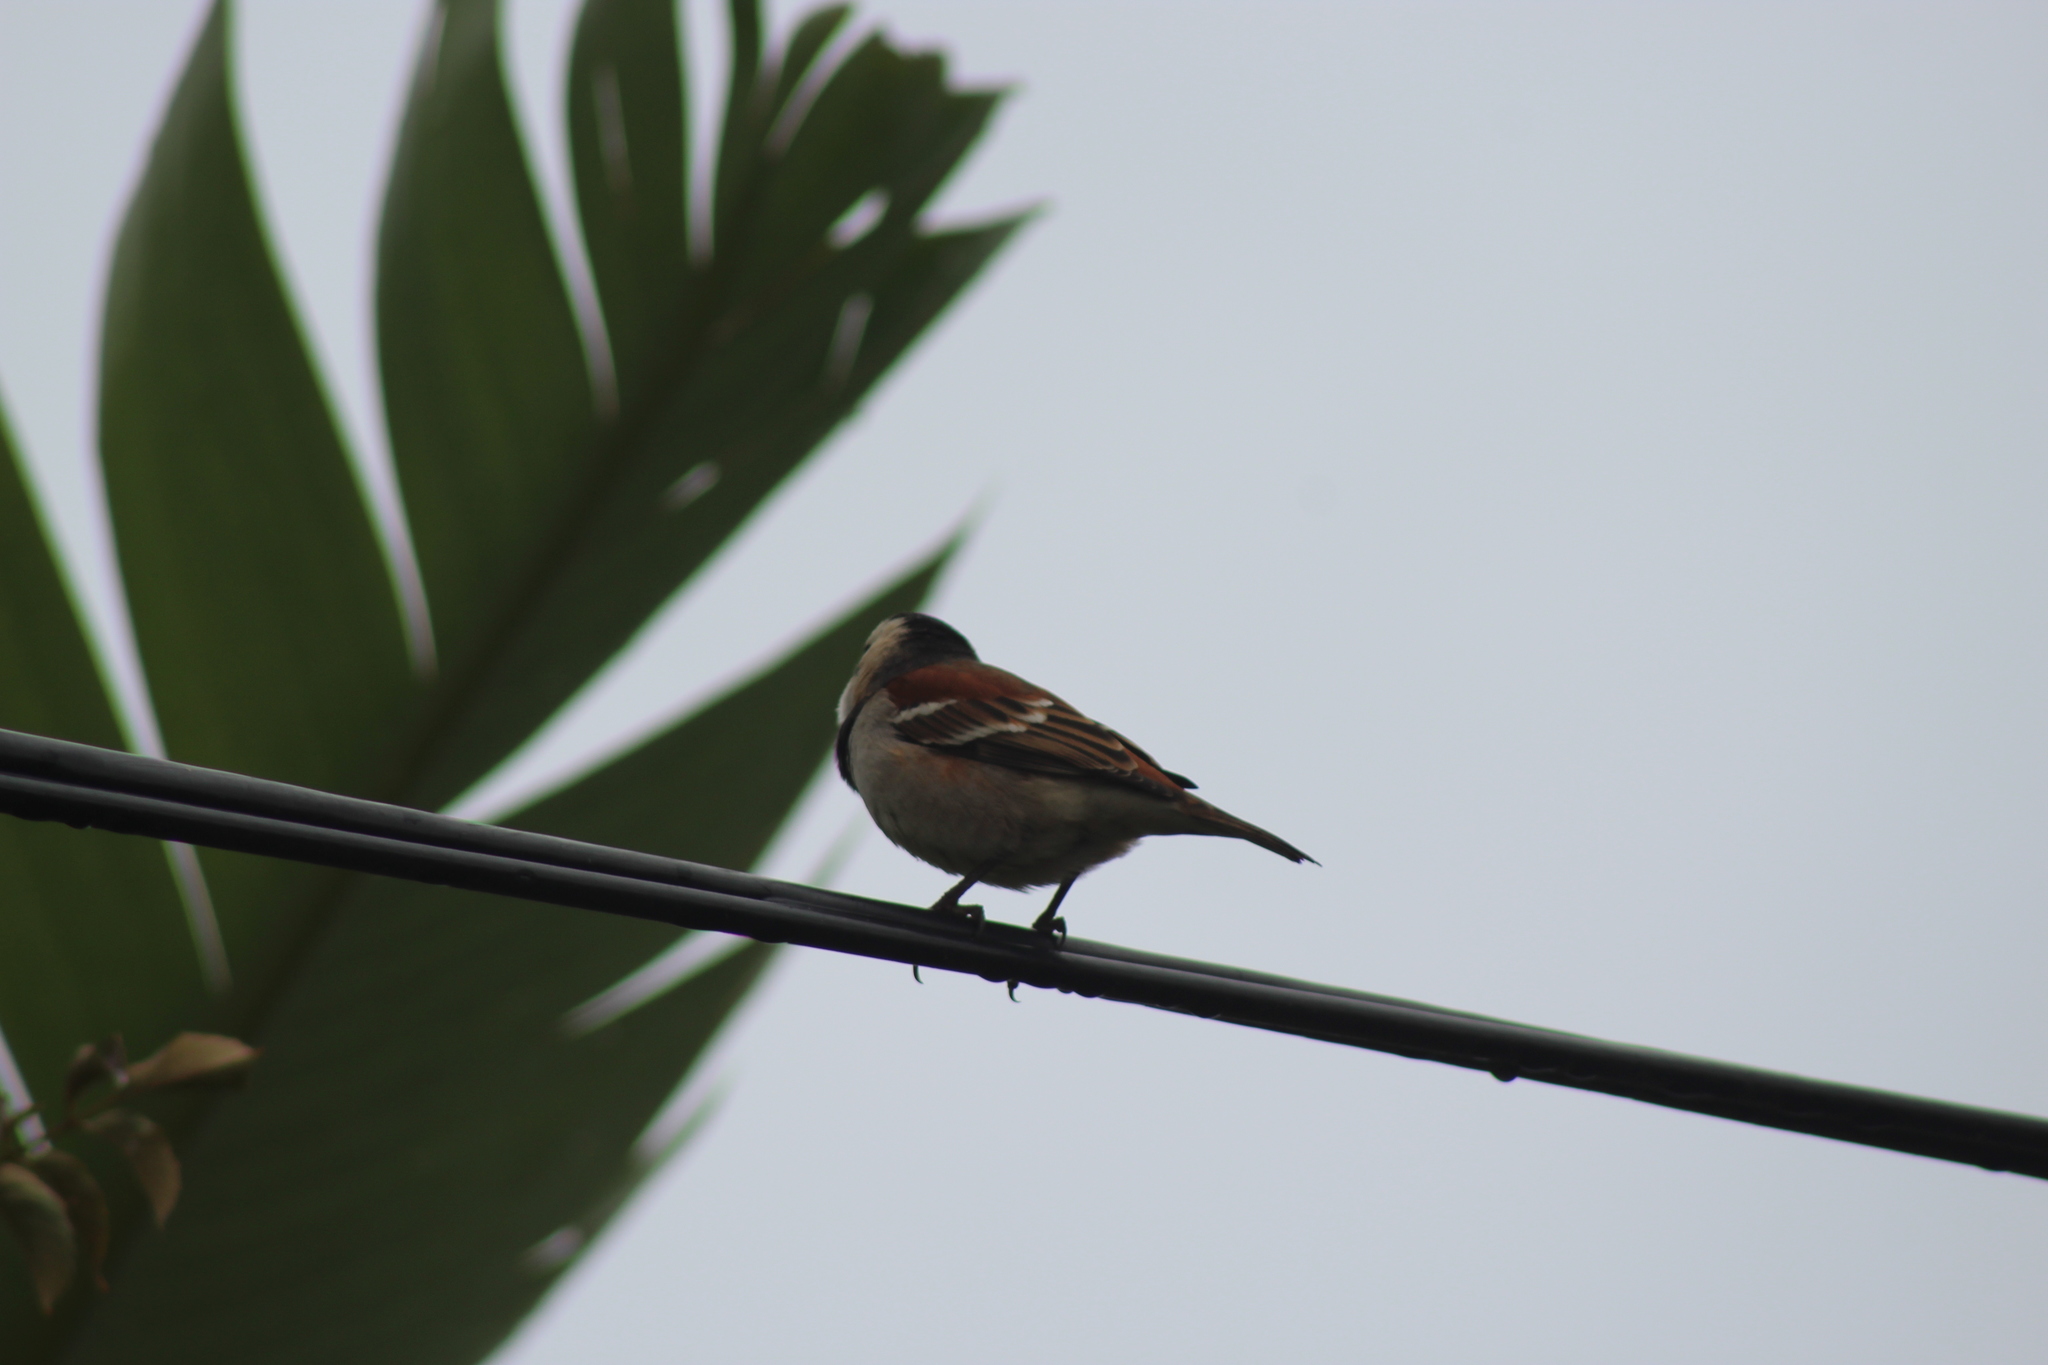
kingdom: Animalia
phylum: Chordata
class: Aves
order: Passeriformes
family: Passeridae
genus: Passer
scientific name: Passer melanurus
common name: Cape sparrow
